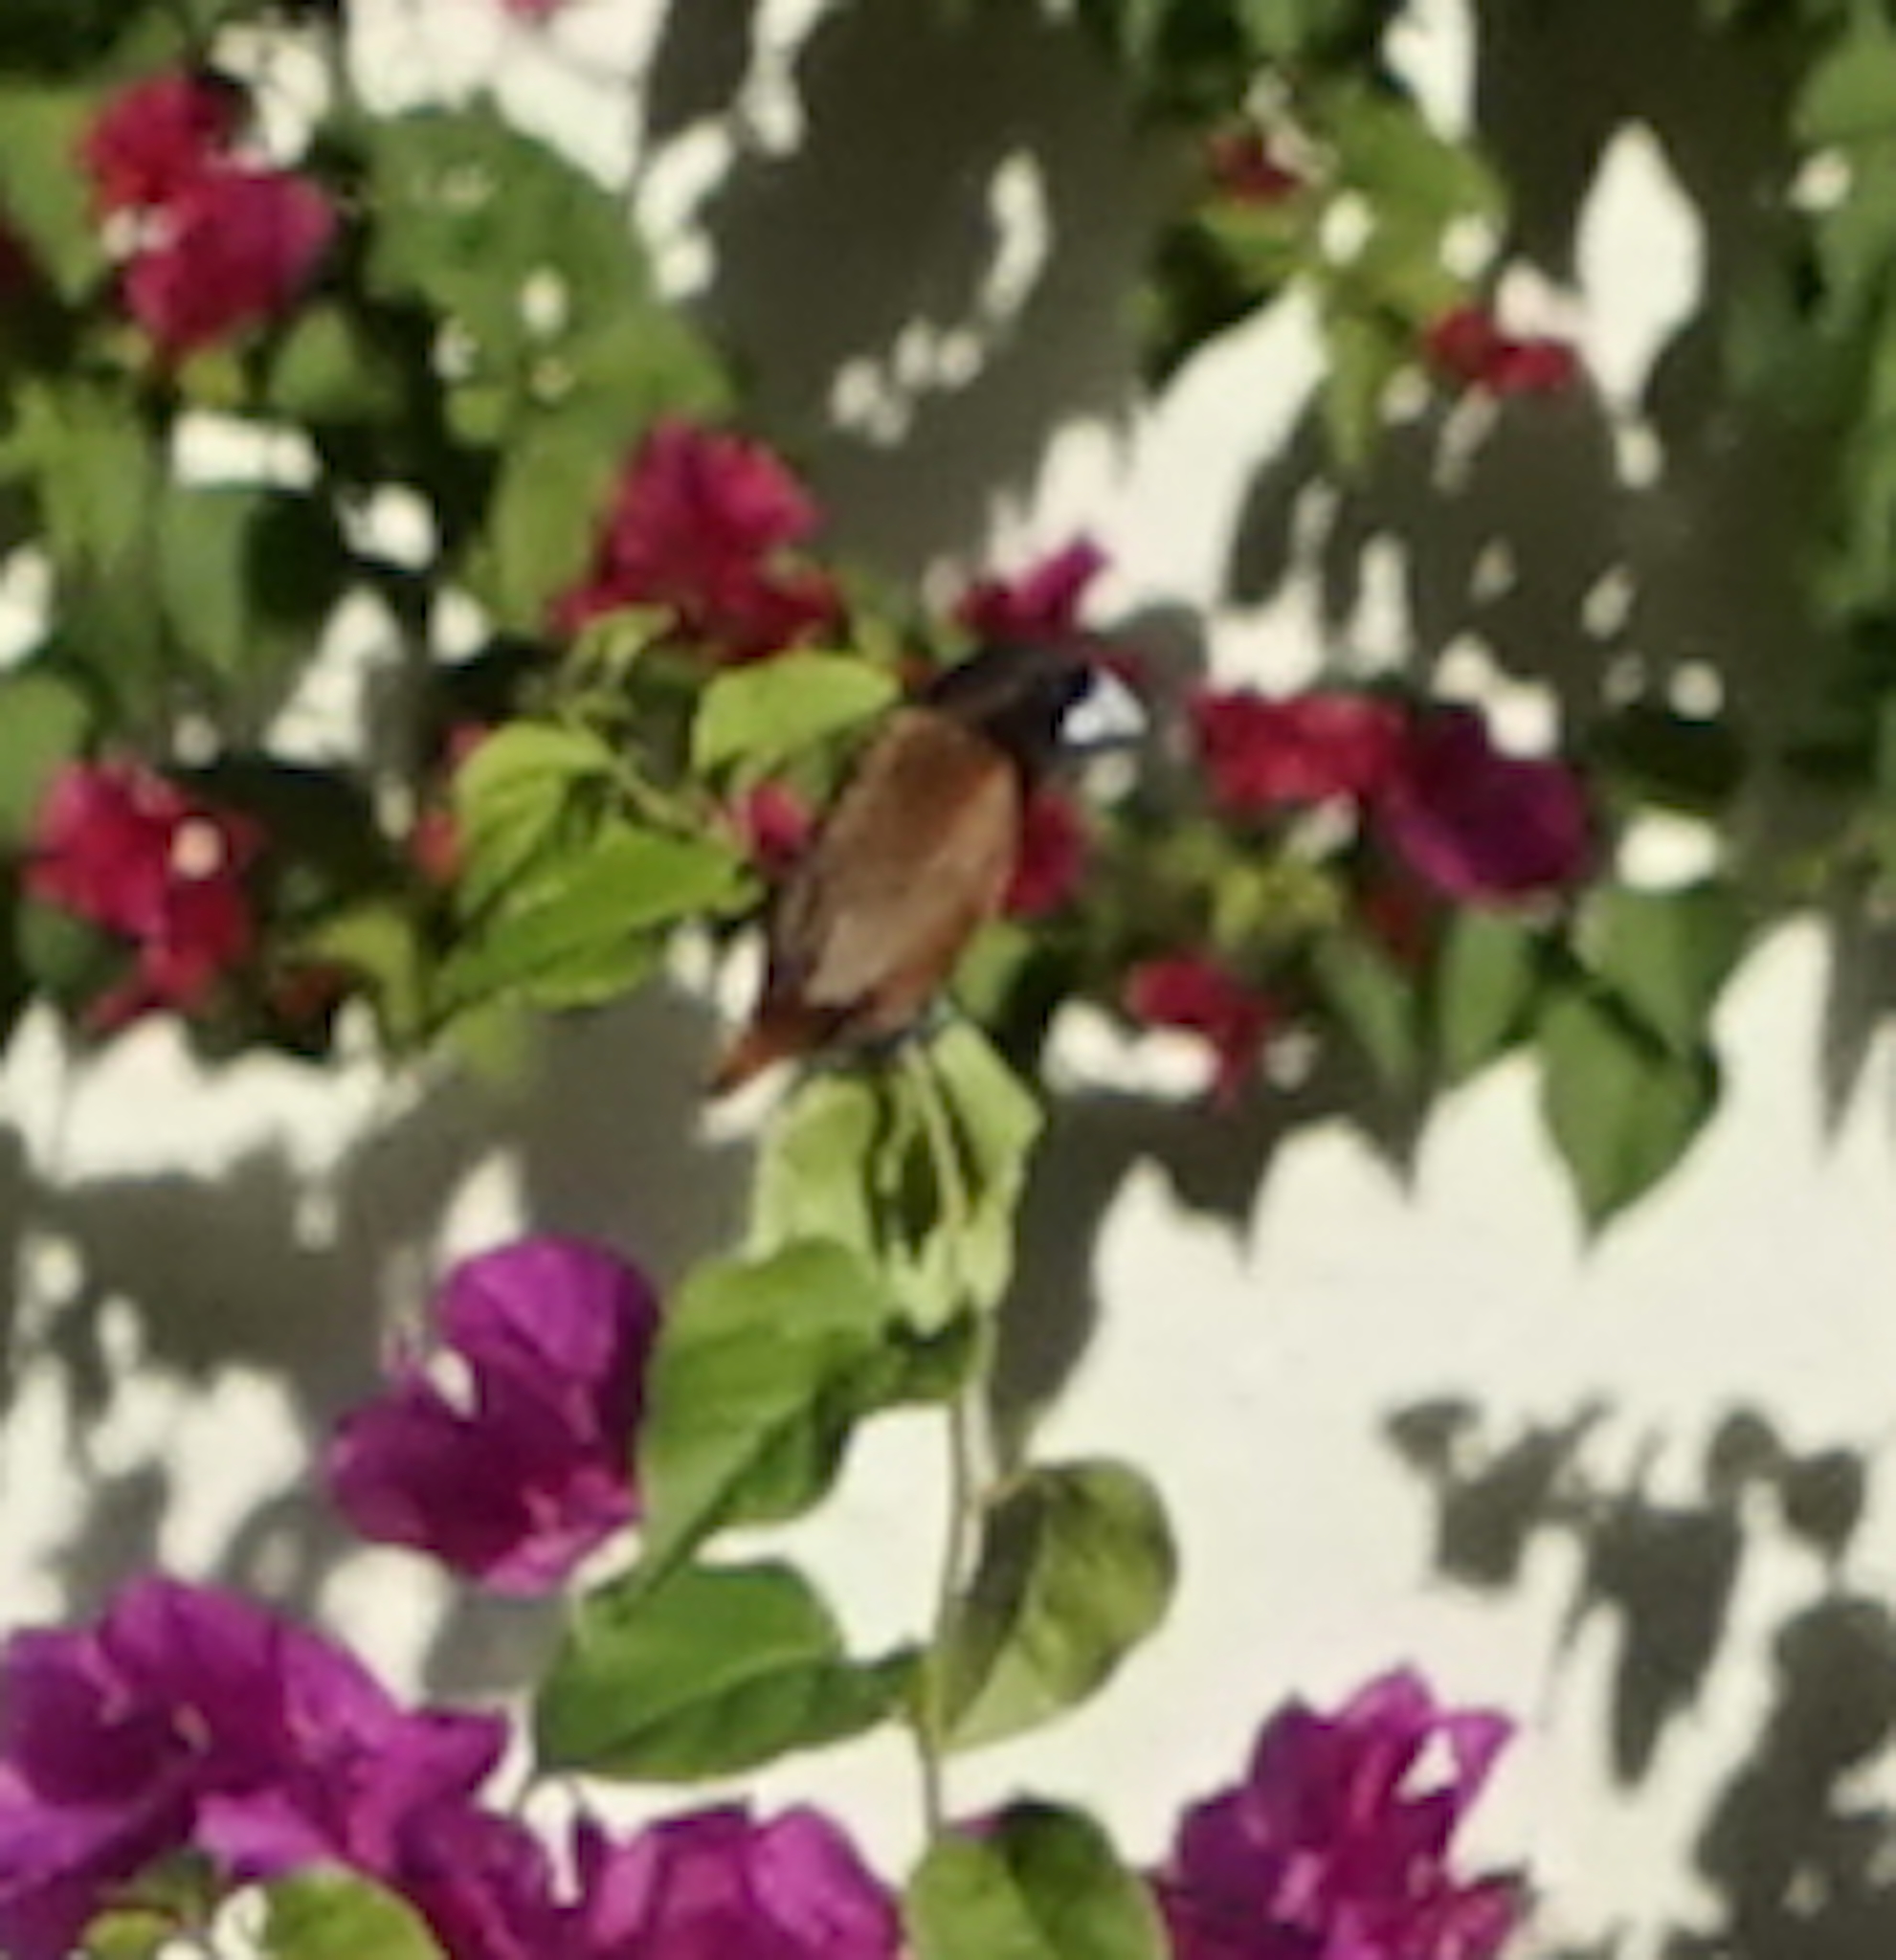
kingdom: Animalia
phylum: Chordata
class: Aves
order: Passeriformes
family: Estrildidae
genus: Lonchura
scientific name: Lonchura atricapilla
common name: Chestnut munia
